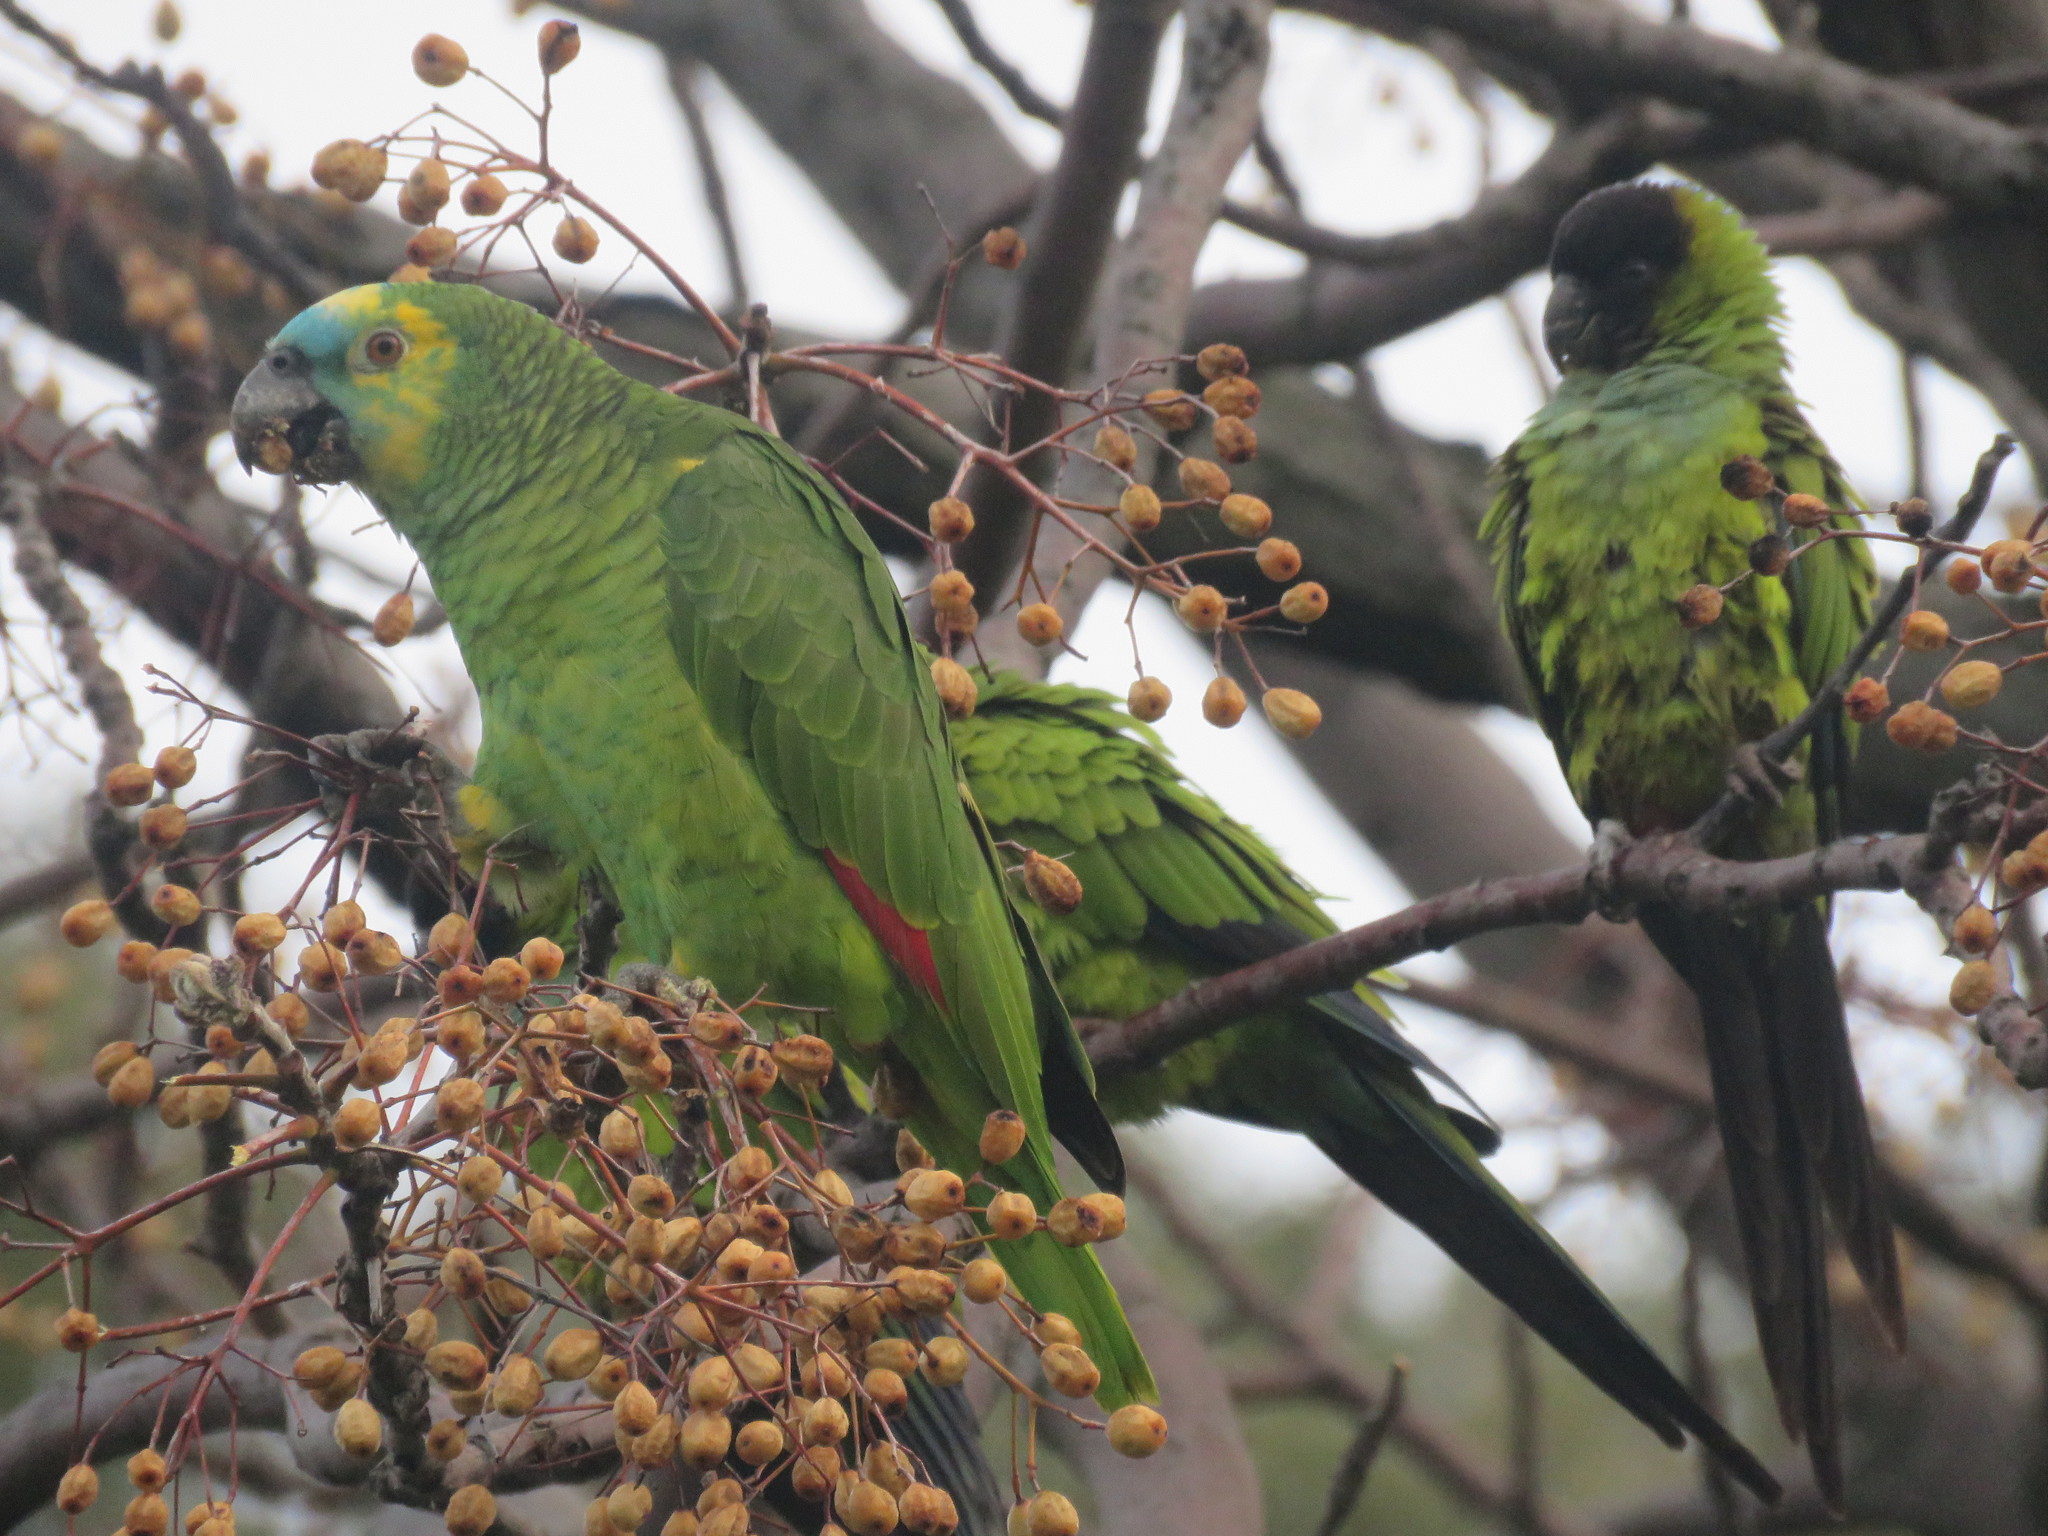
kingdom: Animalia
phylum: Chordata
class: Aves
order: Psittaciformes
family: Psittacidae
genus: Amazona
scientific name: Amazona aestiva
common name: Turquoise-fronted amazon
